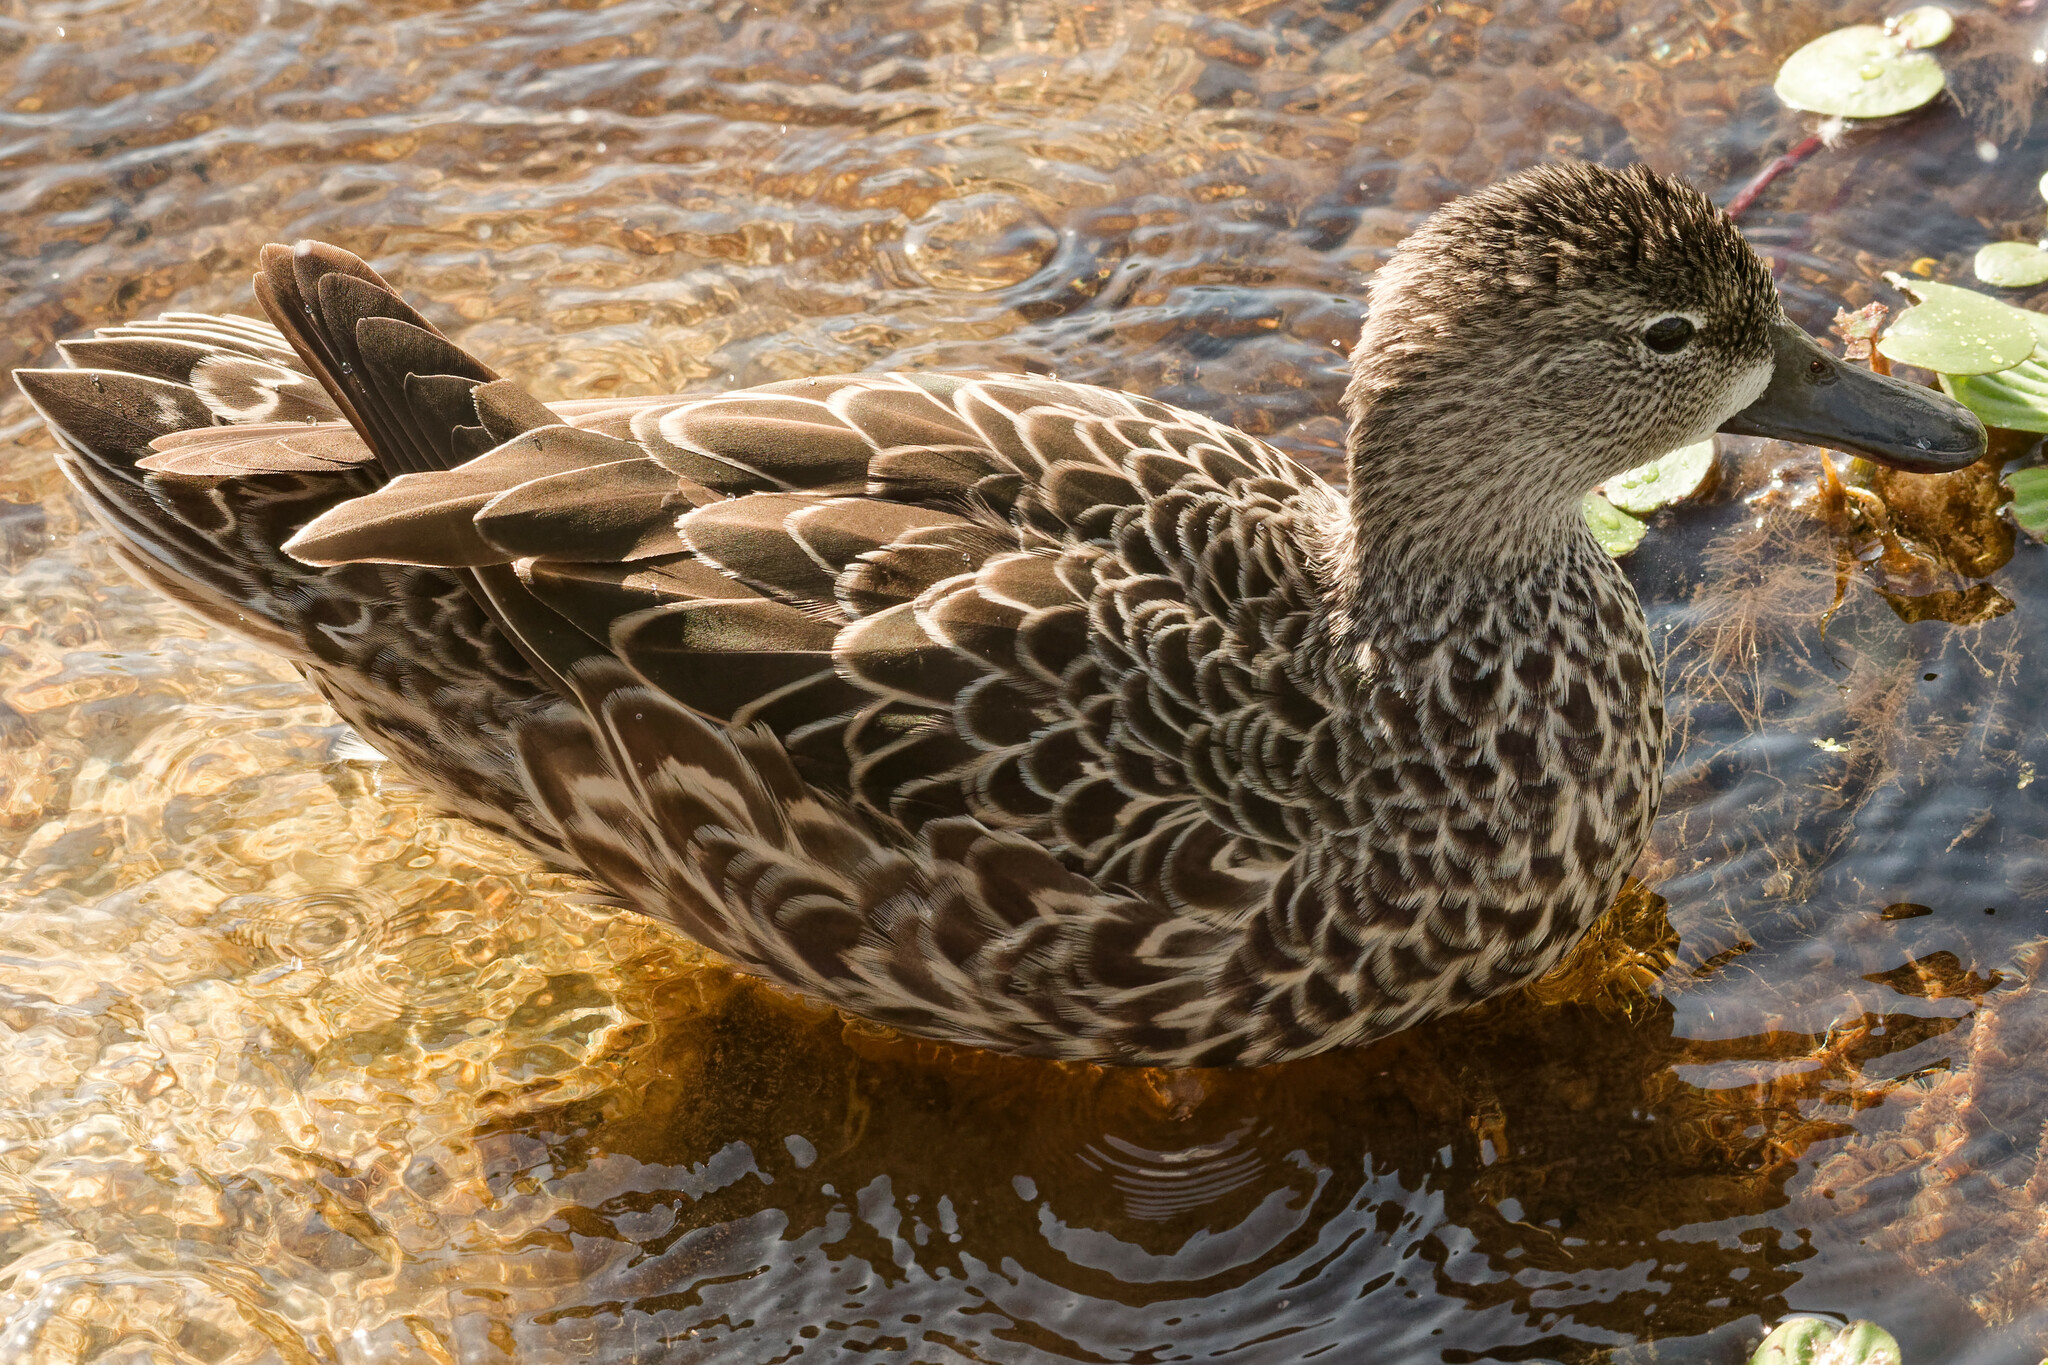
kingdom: Animalia
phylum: Chordata
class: Aves
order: Anseriformes
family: Anatidae
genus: Spatula
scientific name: Spatula discors
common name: Blue-winged teal
